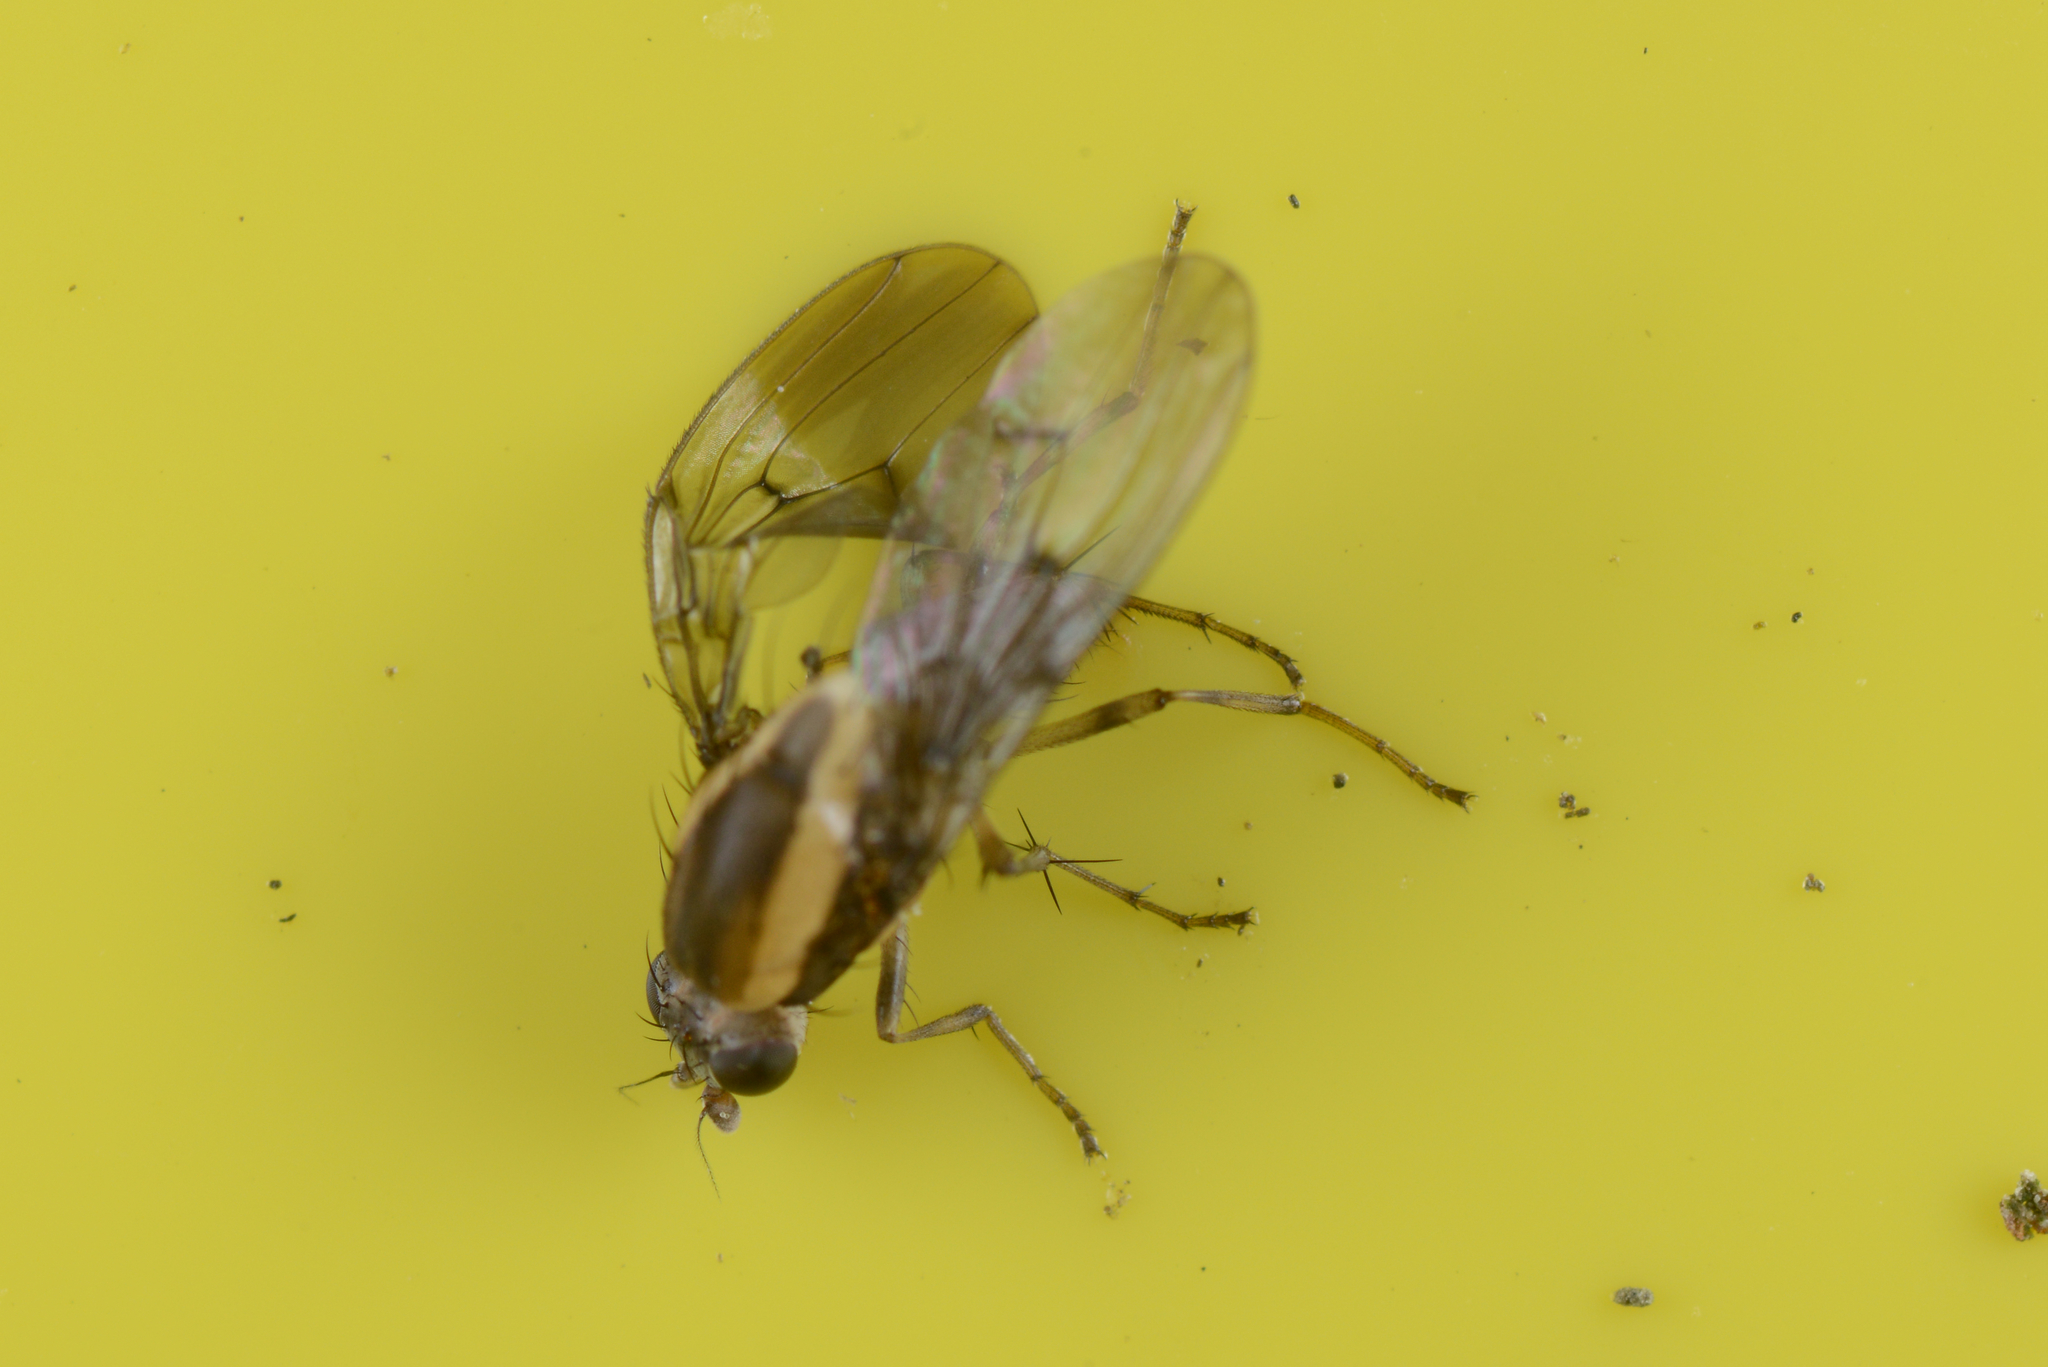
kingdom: Animalia
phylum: Arthropoda
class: Insecta
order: Diptera
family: Heleomyzidae
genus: Allophylopsis
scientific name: Allophylopsis scutellata
